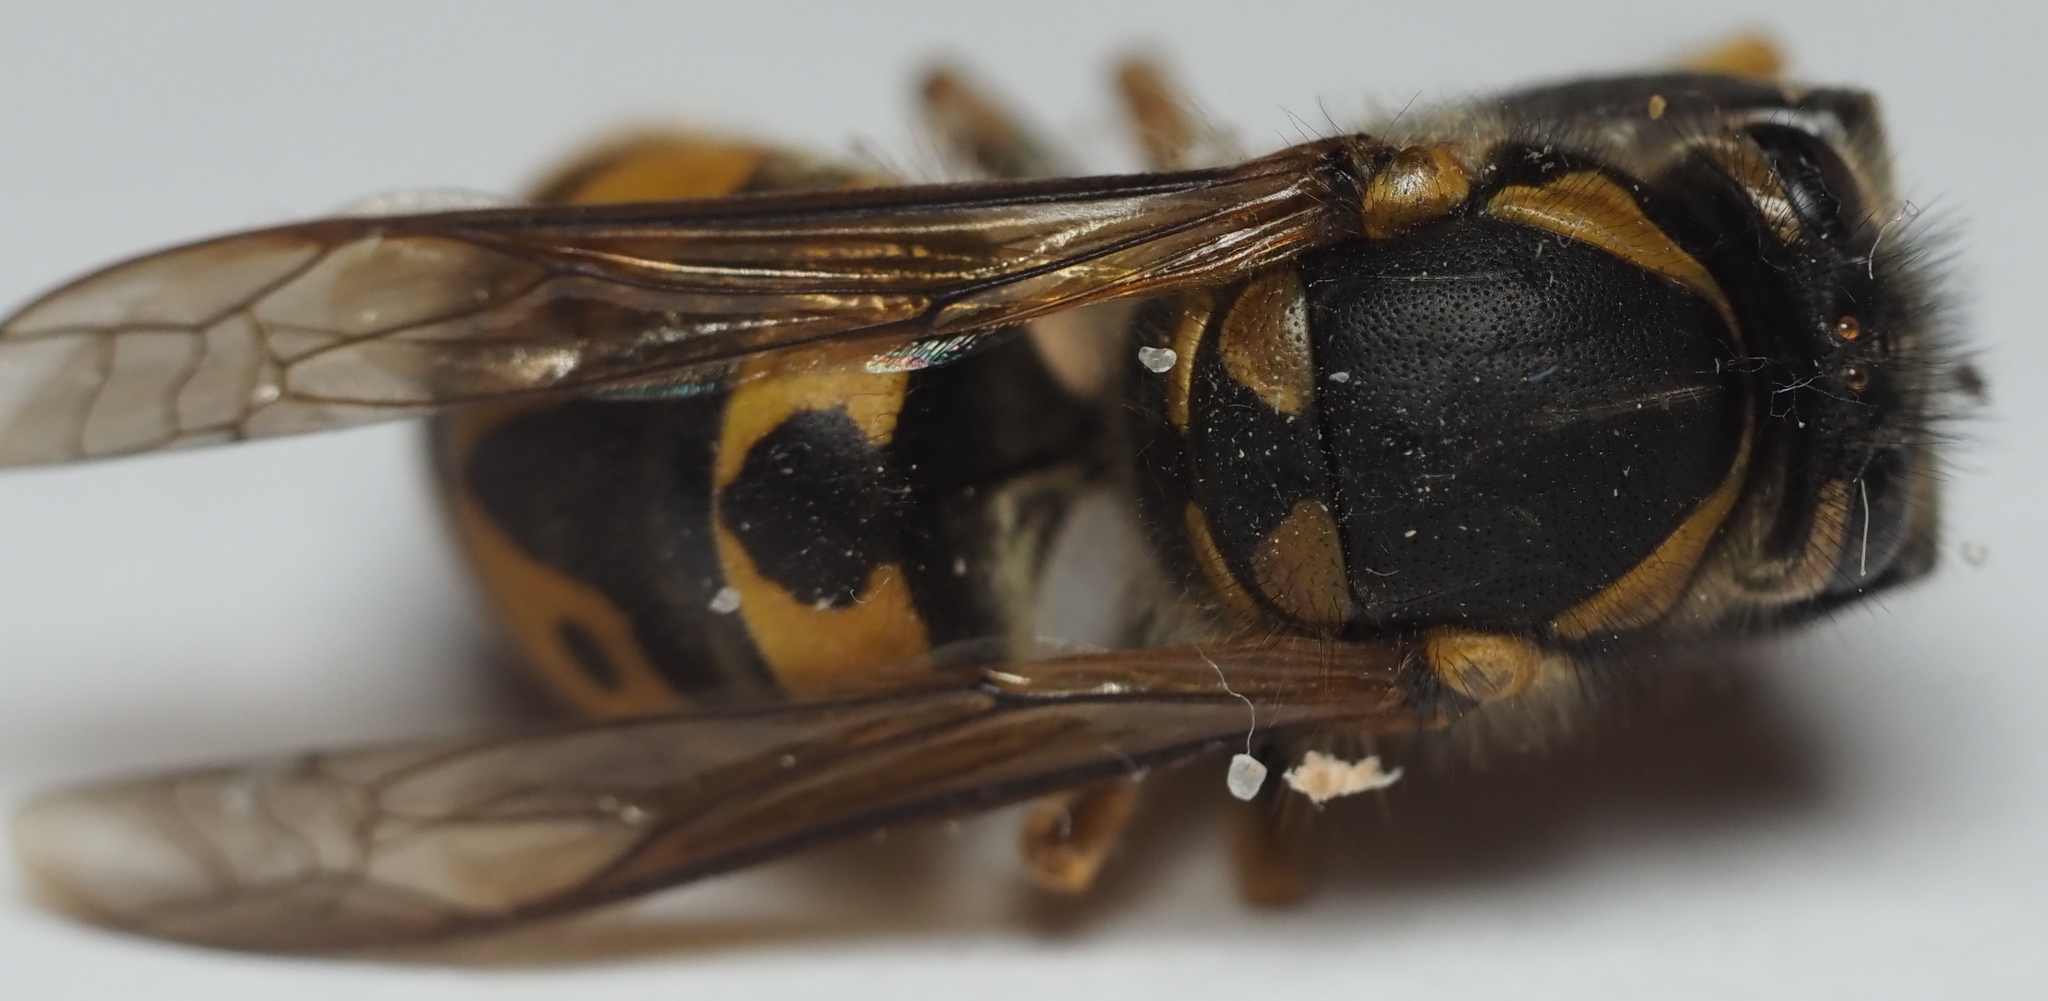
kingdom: Animalia
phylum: Arthropoda
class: Insecta
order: Hymenoptera
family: Vespidae
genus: Vespula
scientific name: Vespula germanica
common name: German wasp
